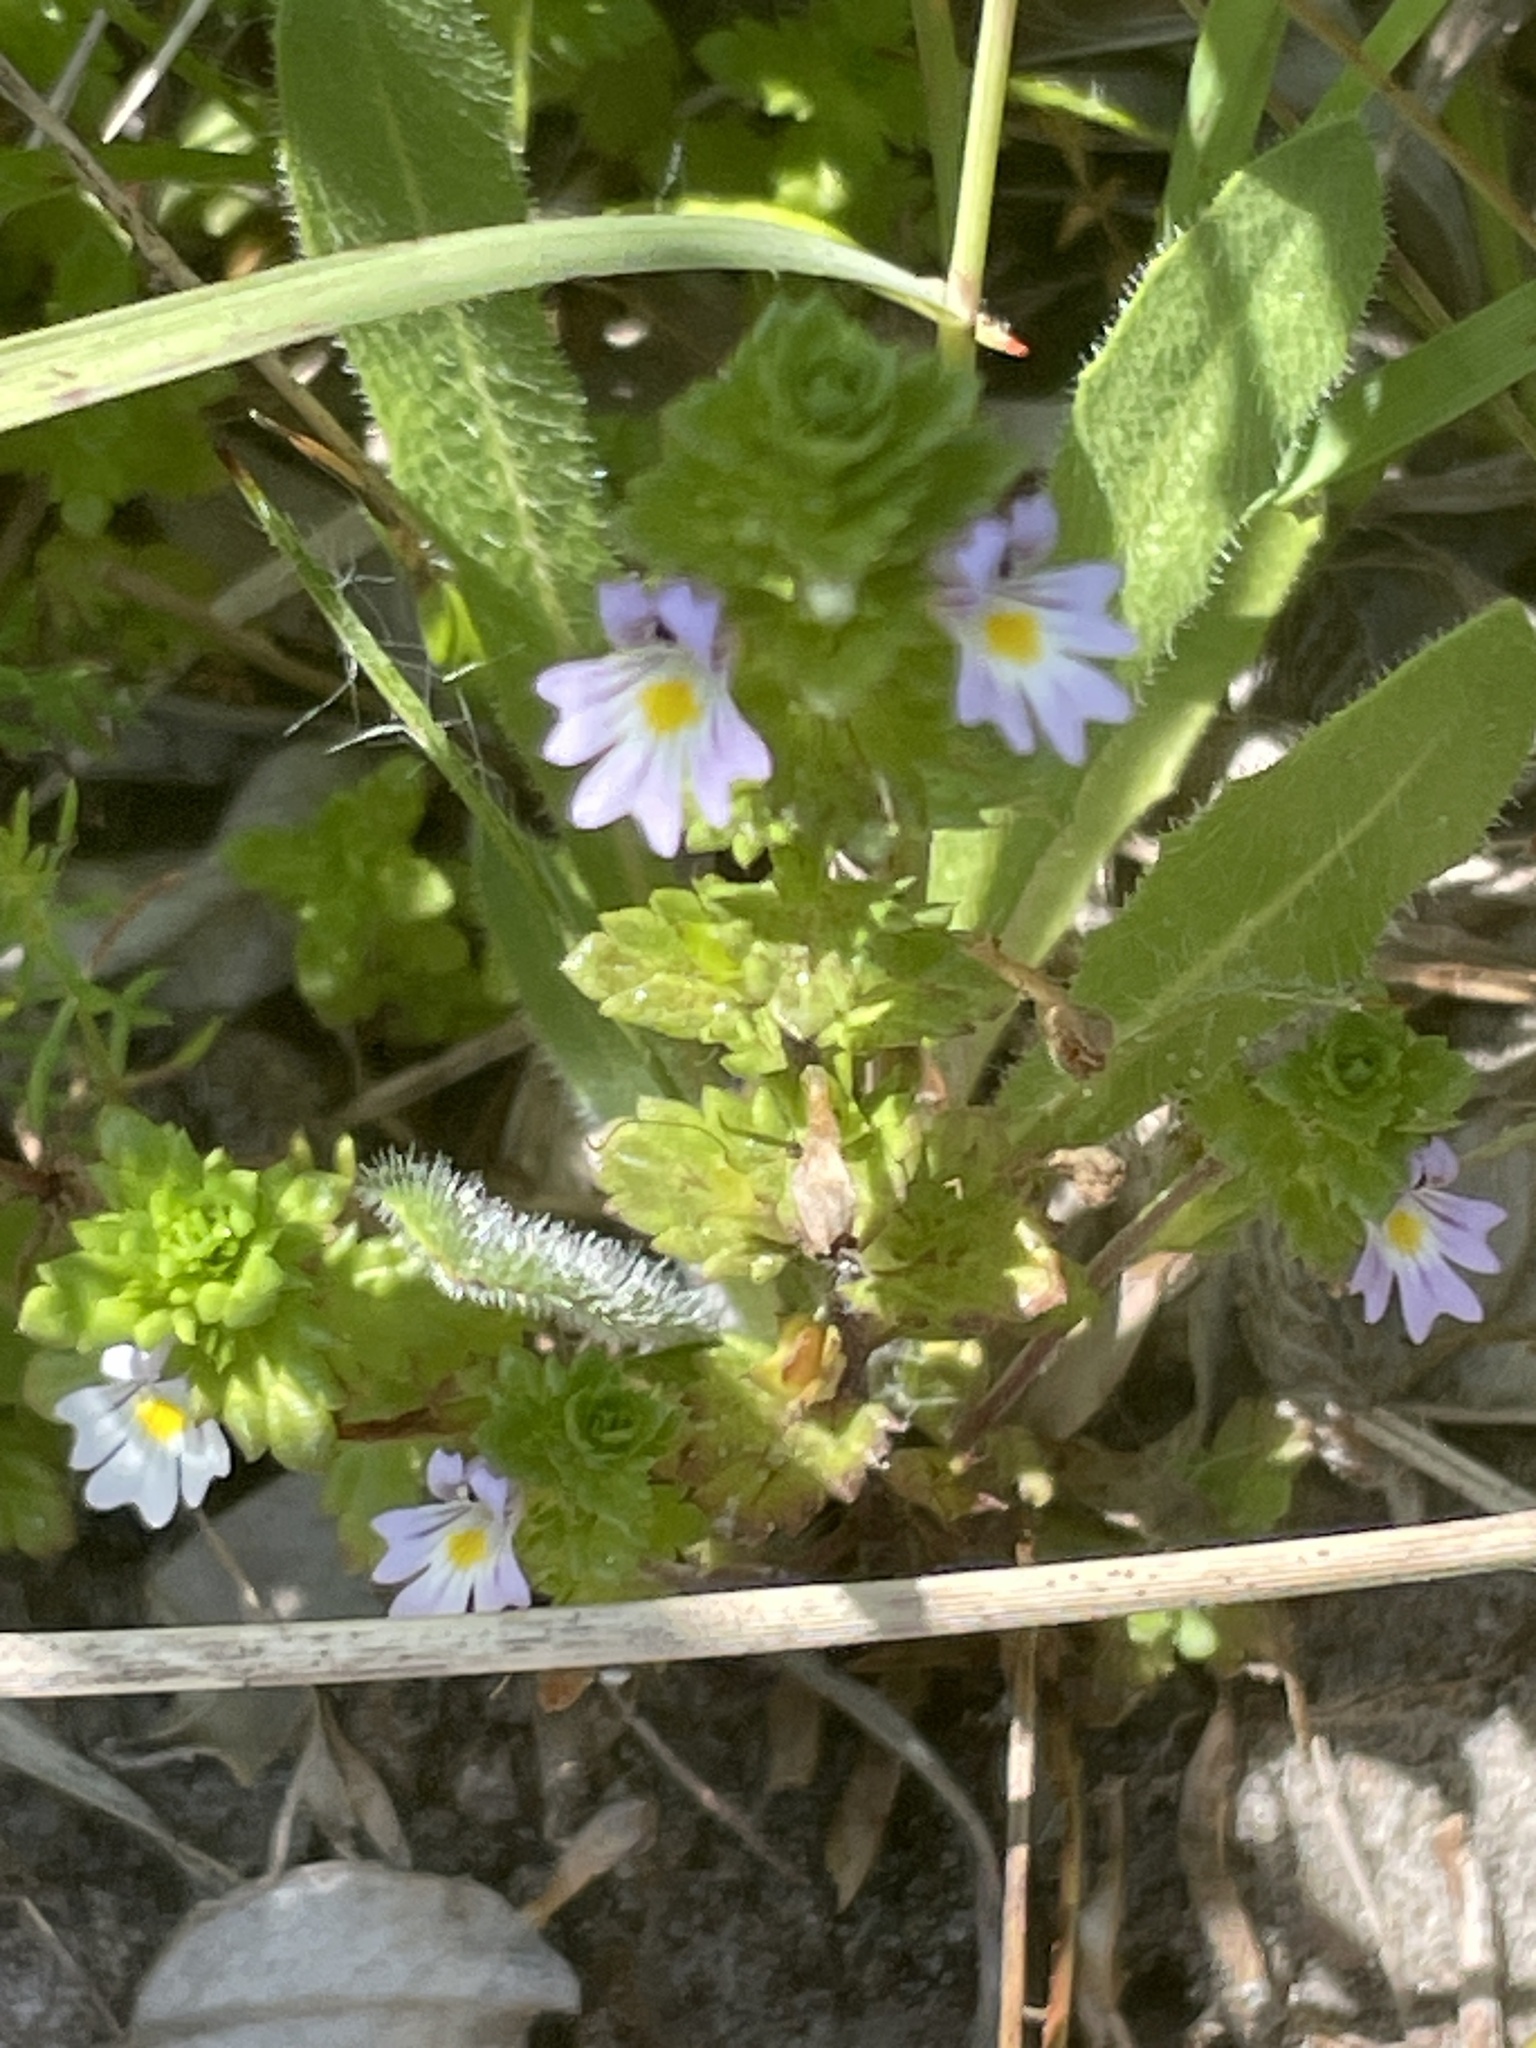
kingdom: Plantae
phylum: Tracheophyta
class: Magnoliopsida
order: Lamiales
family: Orobanchaceae
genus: Euphrasia
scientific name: Euphrasia stricta
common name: Drug eyebright
